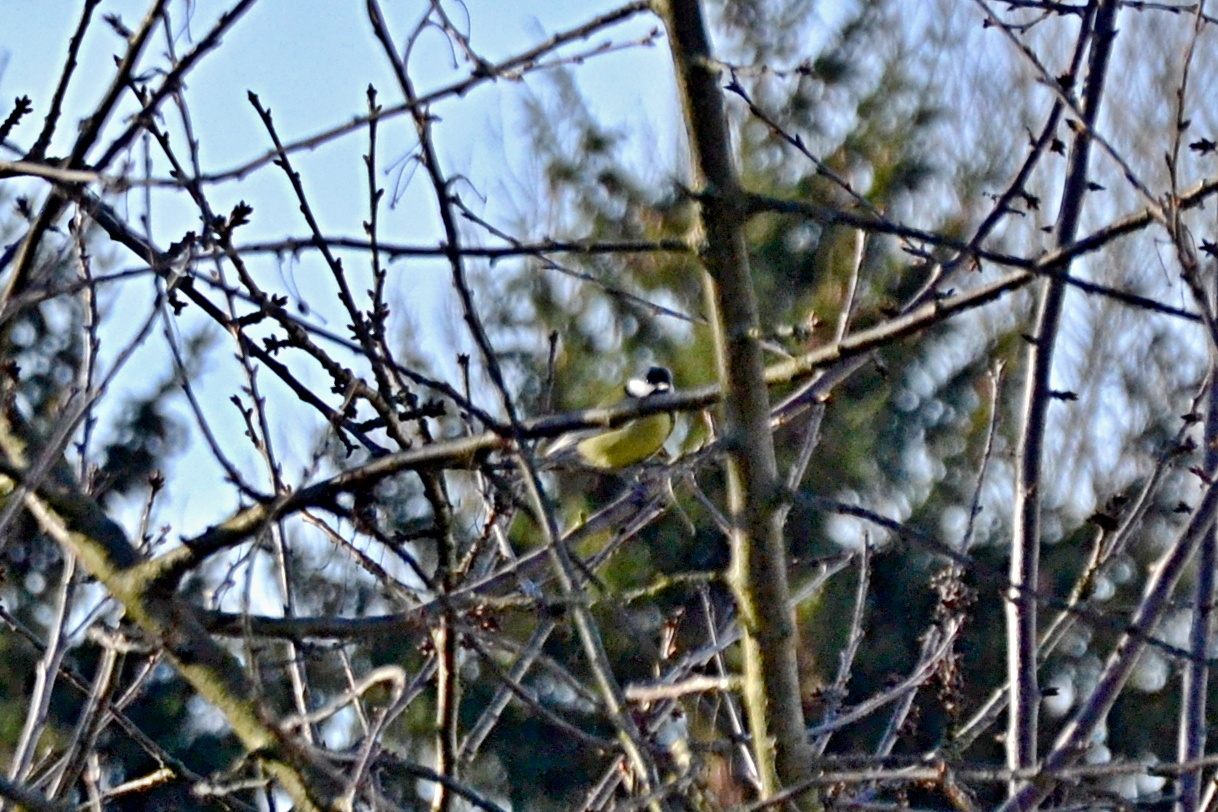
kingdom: Animalia
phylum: Chordata
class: Aves
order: Passeriformes
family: Paridae
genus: Parus
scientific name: Parus major
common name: Great tit
